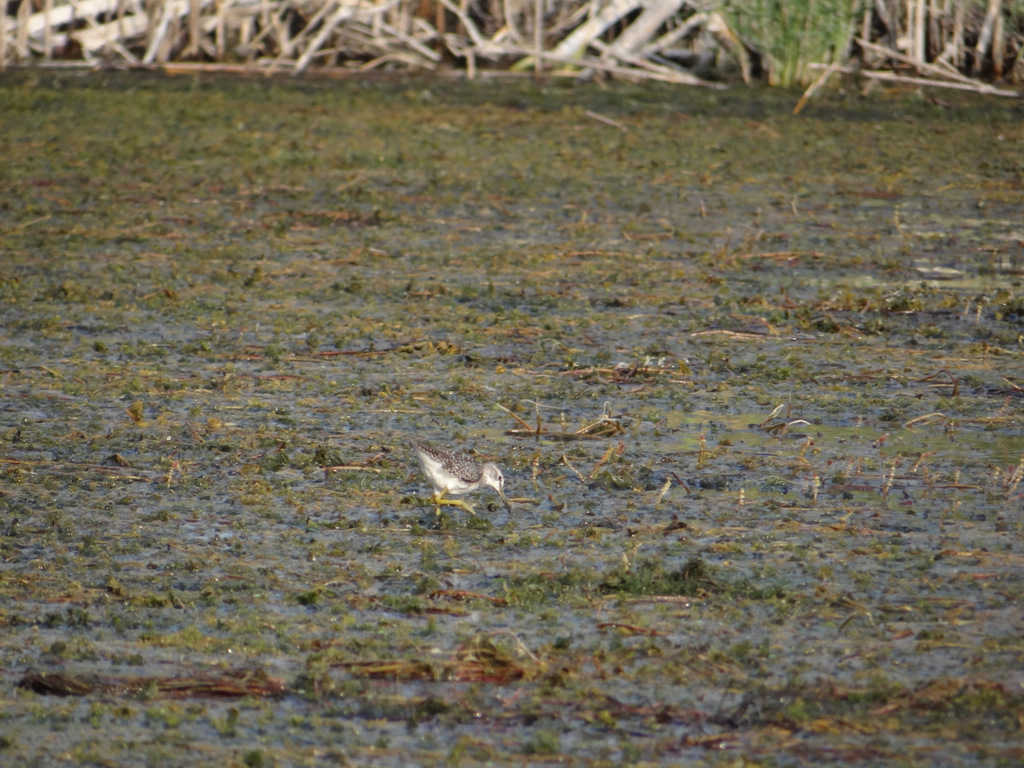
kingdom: Animalia
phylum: Chordata
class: Aves
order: Charadriiformes
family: Scolopacidae
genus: Tringa
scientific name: Tringa glareola
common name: Wood sandpiper
